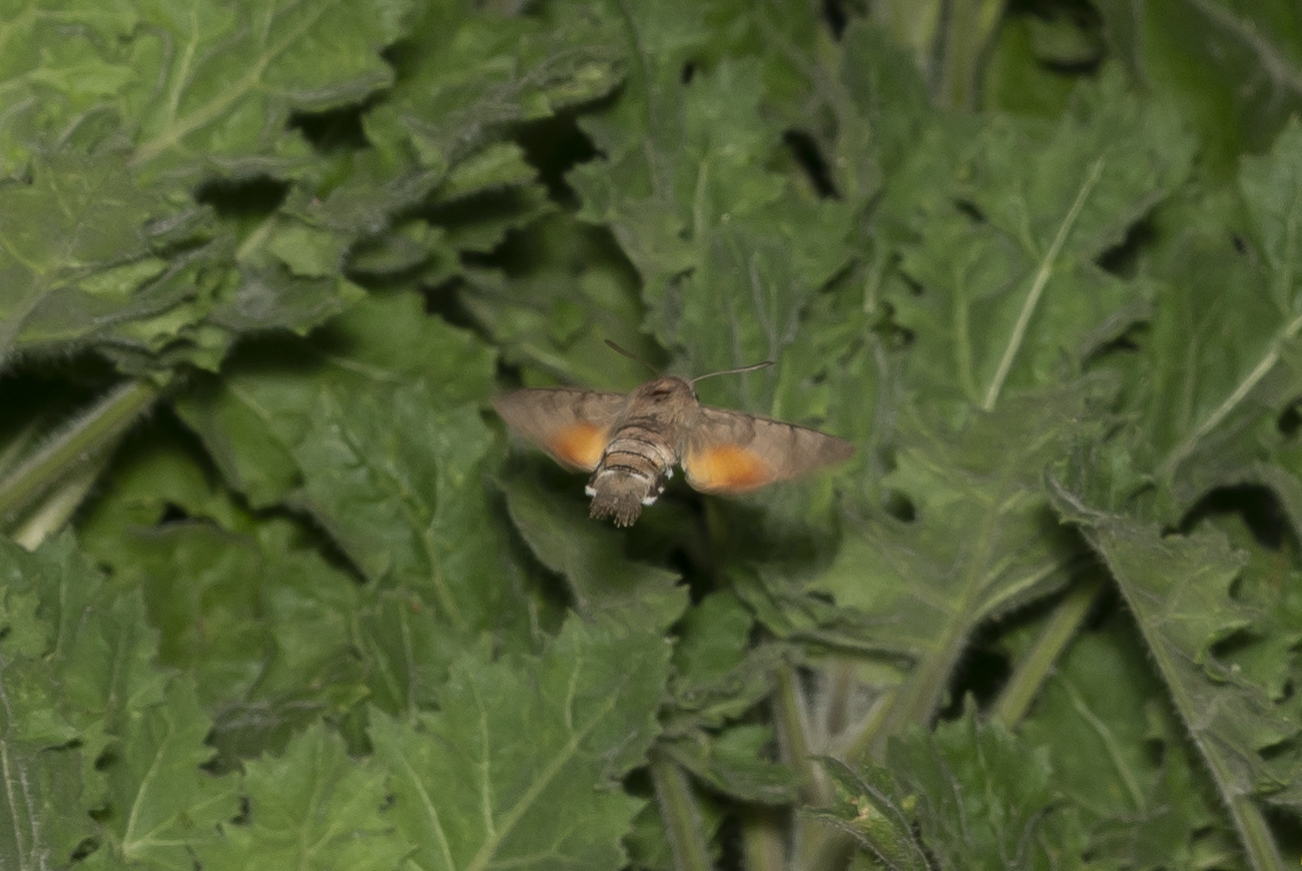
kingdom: Animalia
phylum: Arthropoda
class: Insecta
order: Lepidoptera
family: Sphingidae
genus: Macroglossum
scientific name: Macroglossum stellatarum
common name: Humming-bird hawk-moth
